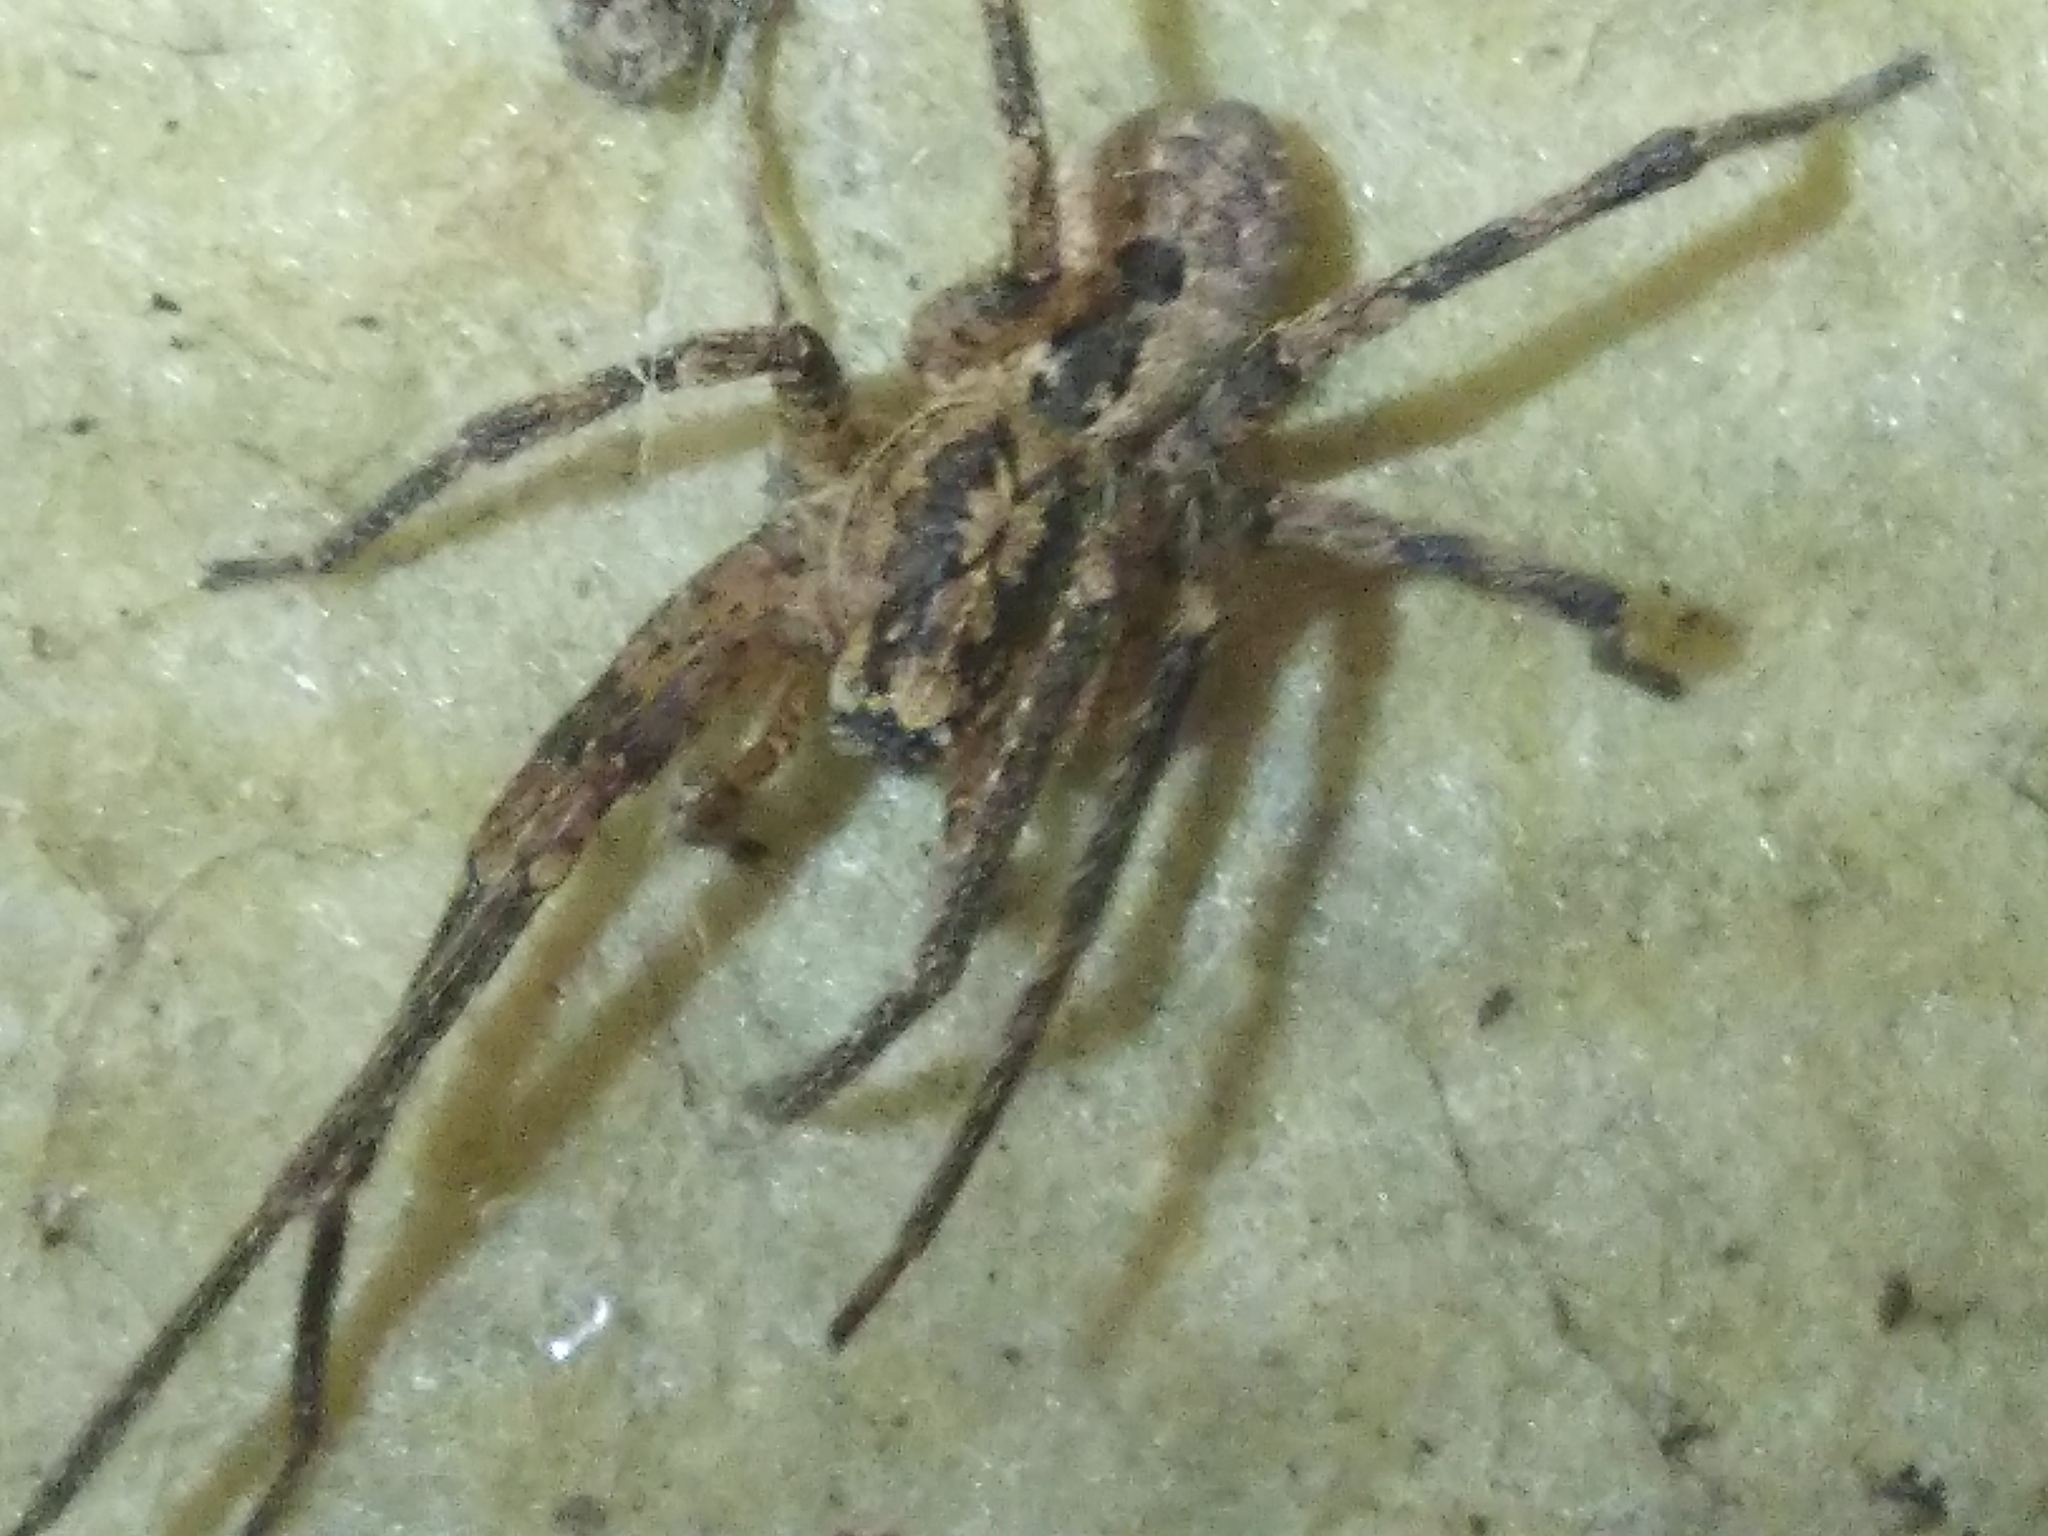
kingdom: Animalia
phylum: Arthropoda
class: Arachnida
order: Araneae
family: Zoropsidae
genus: Zoropsis
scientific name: Zoropsis spinimana
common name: Zoropsid spider
